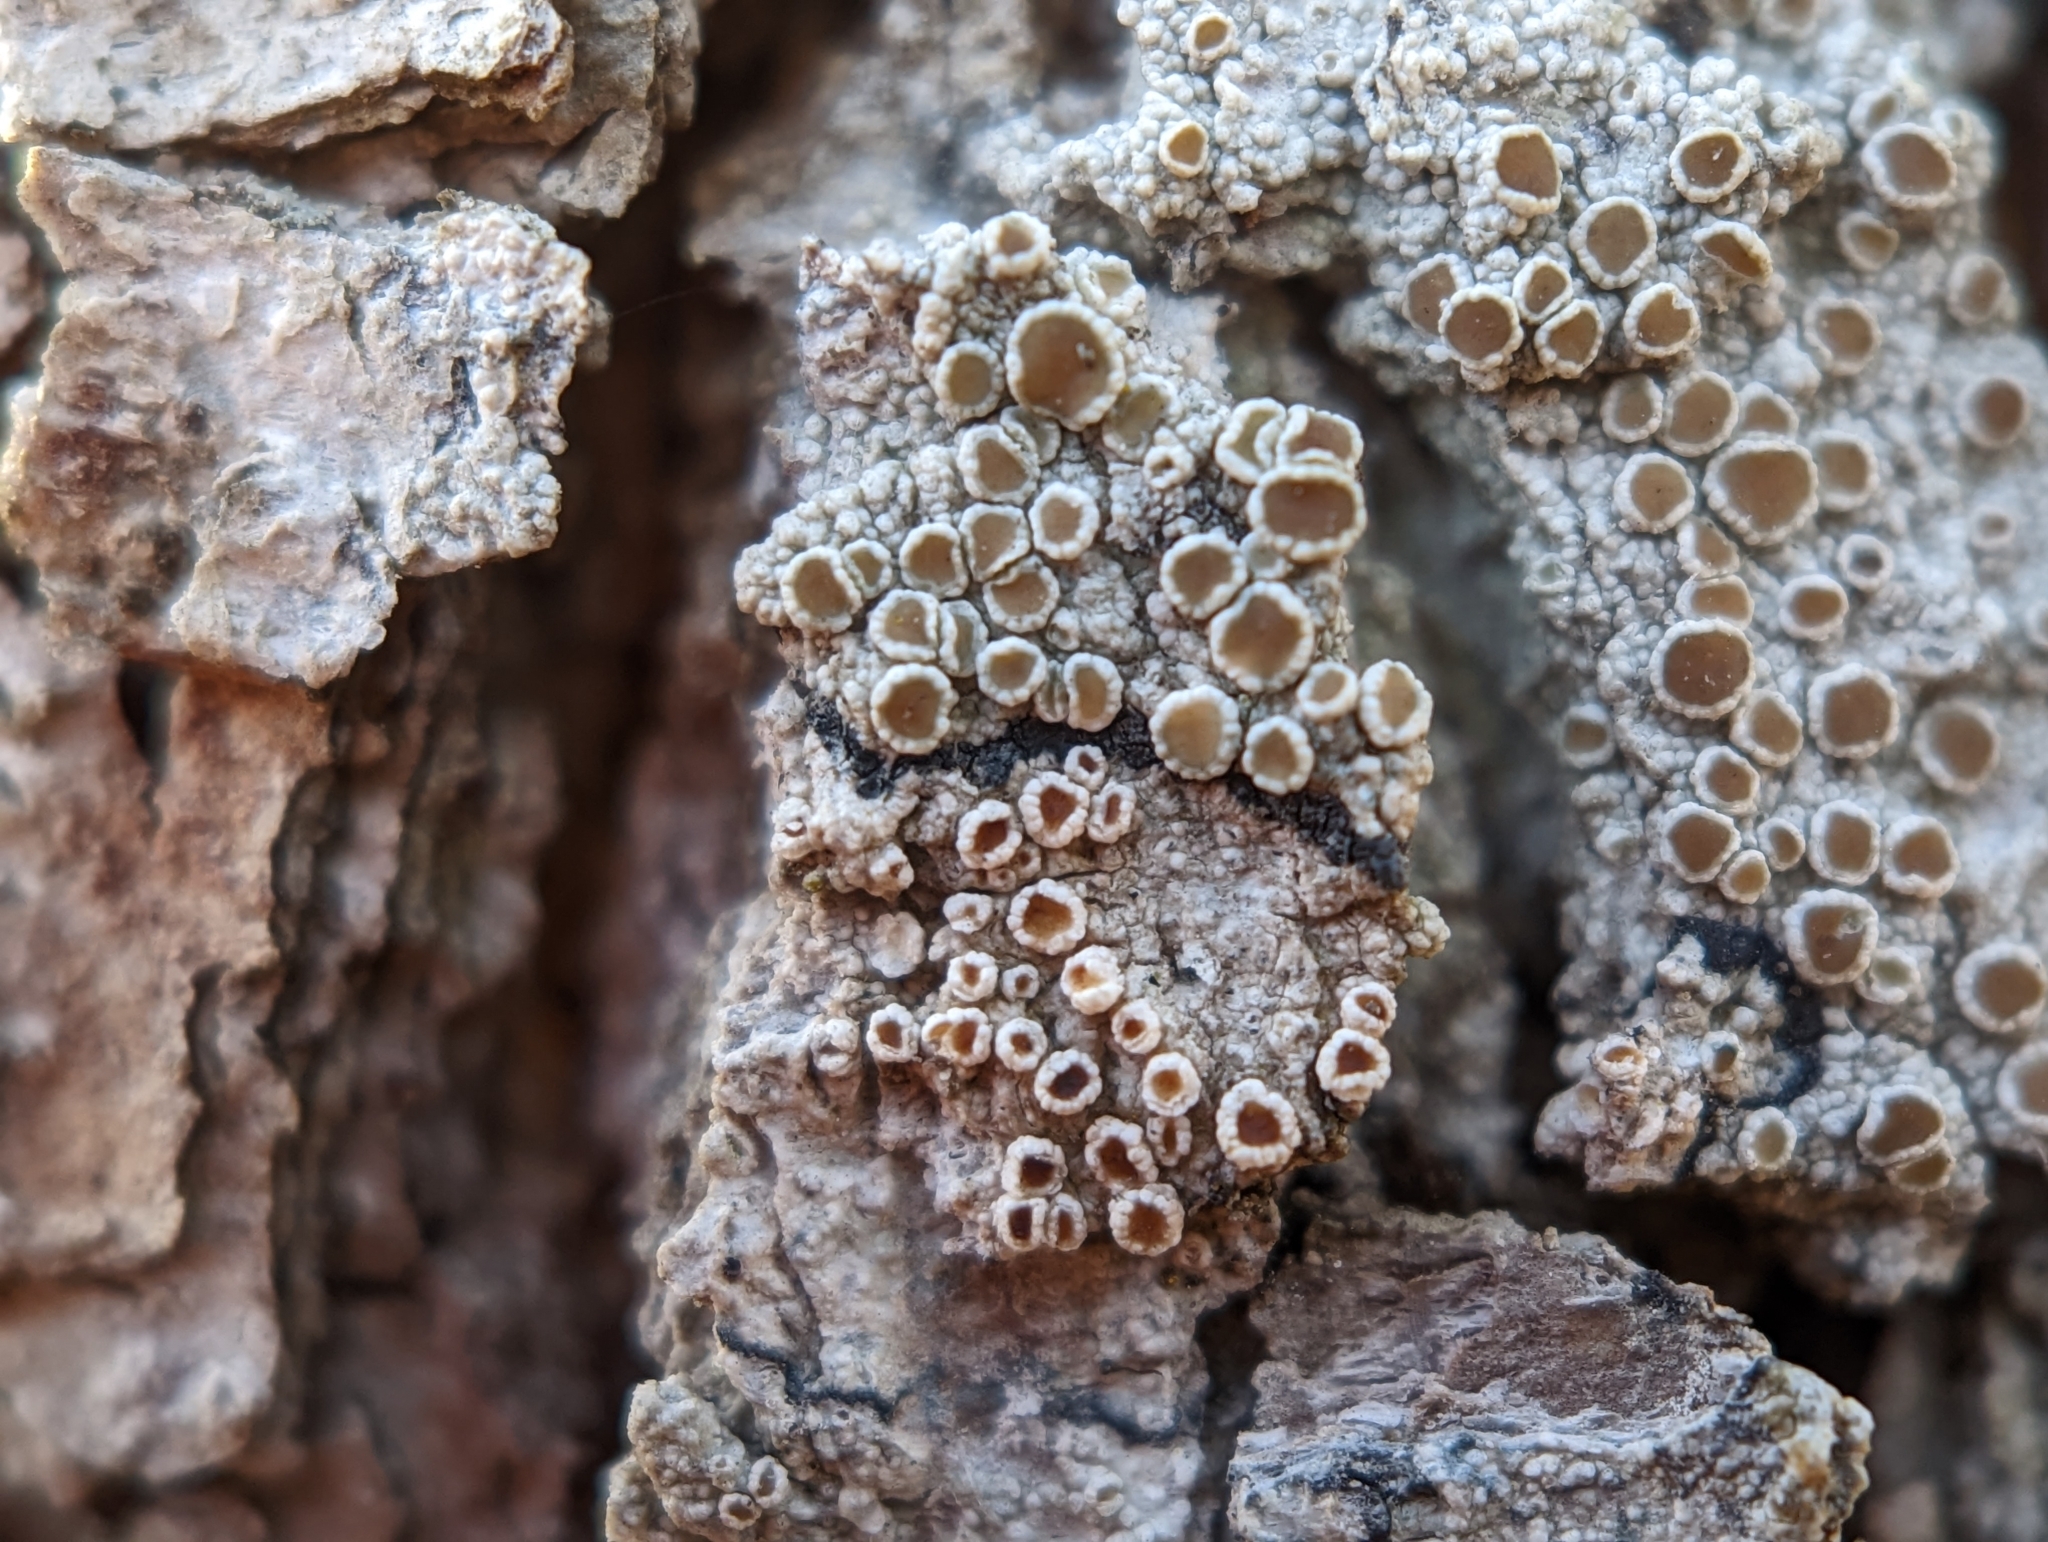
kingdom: Fungi
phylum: Ascomycota
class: Lecanoromycetes
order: Lecanorales
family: Lecanoraceae
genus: Lecanora
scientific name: Lecanora hybocarpa
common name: Bumpy rim-lichen
